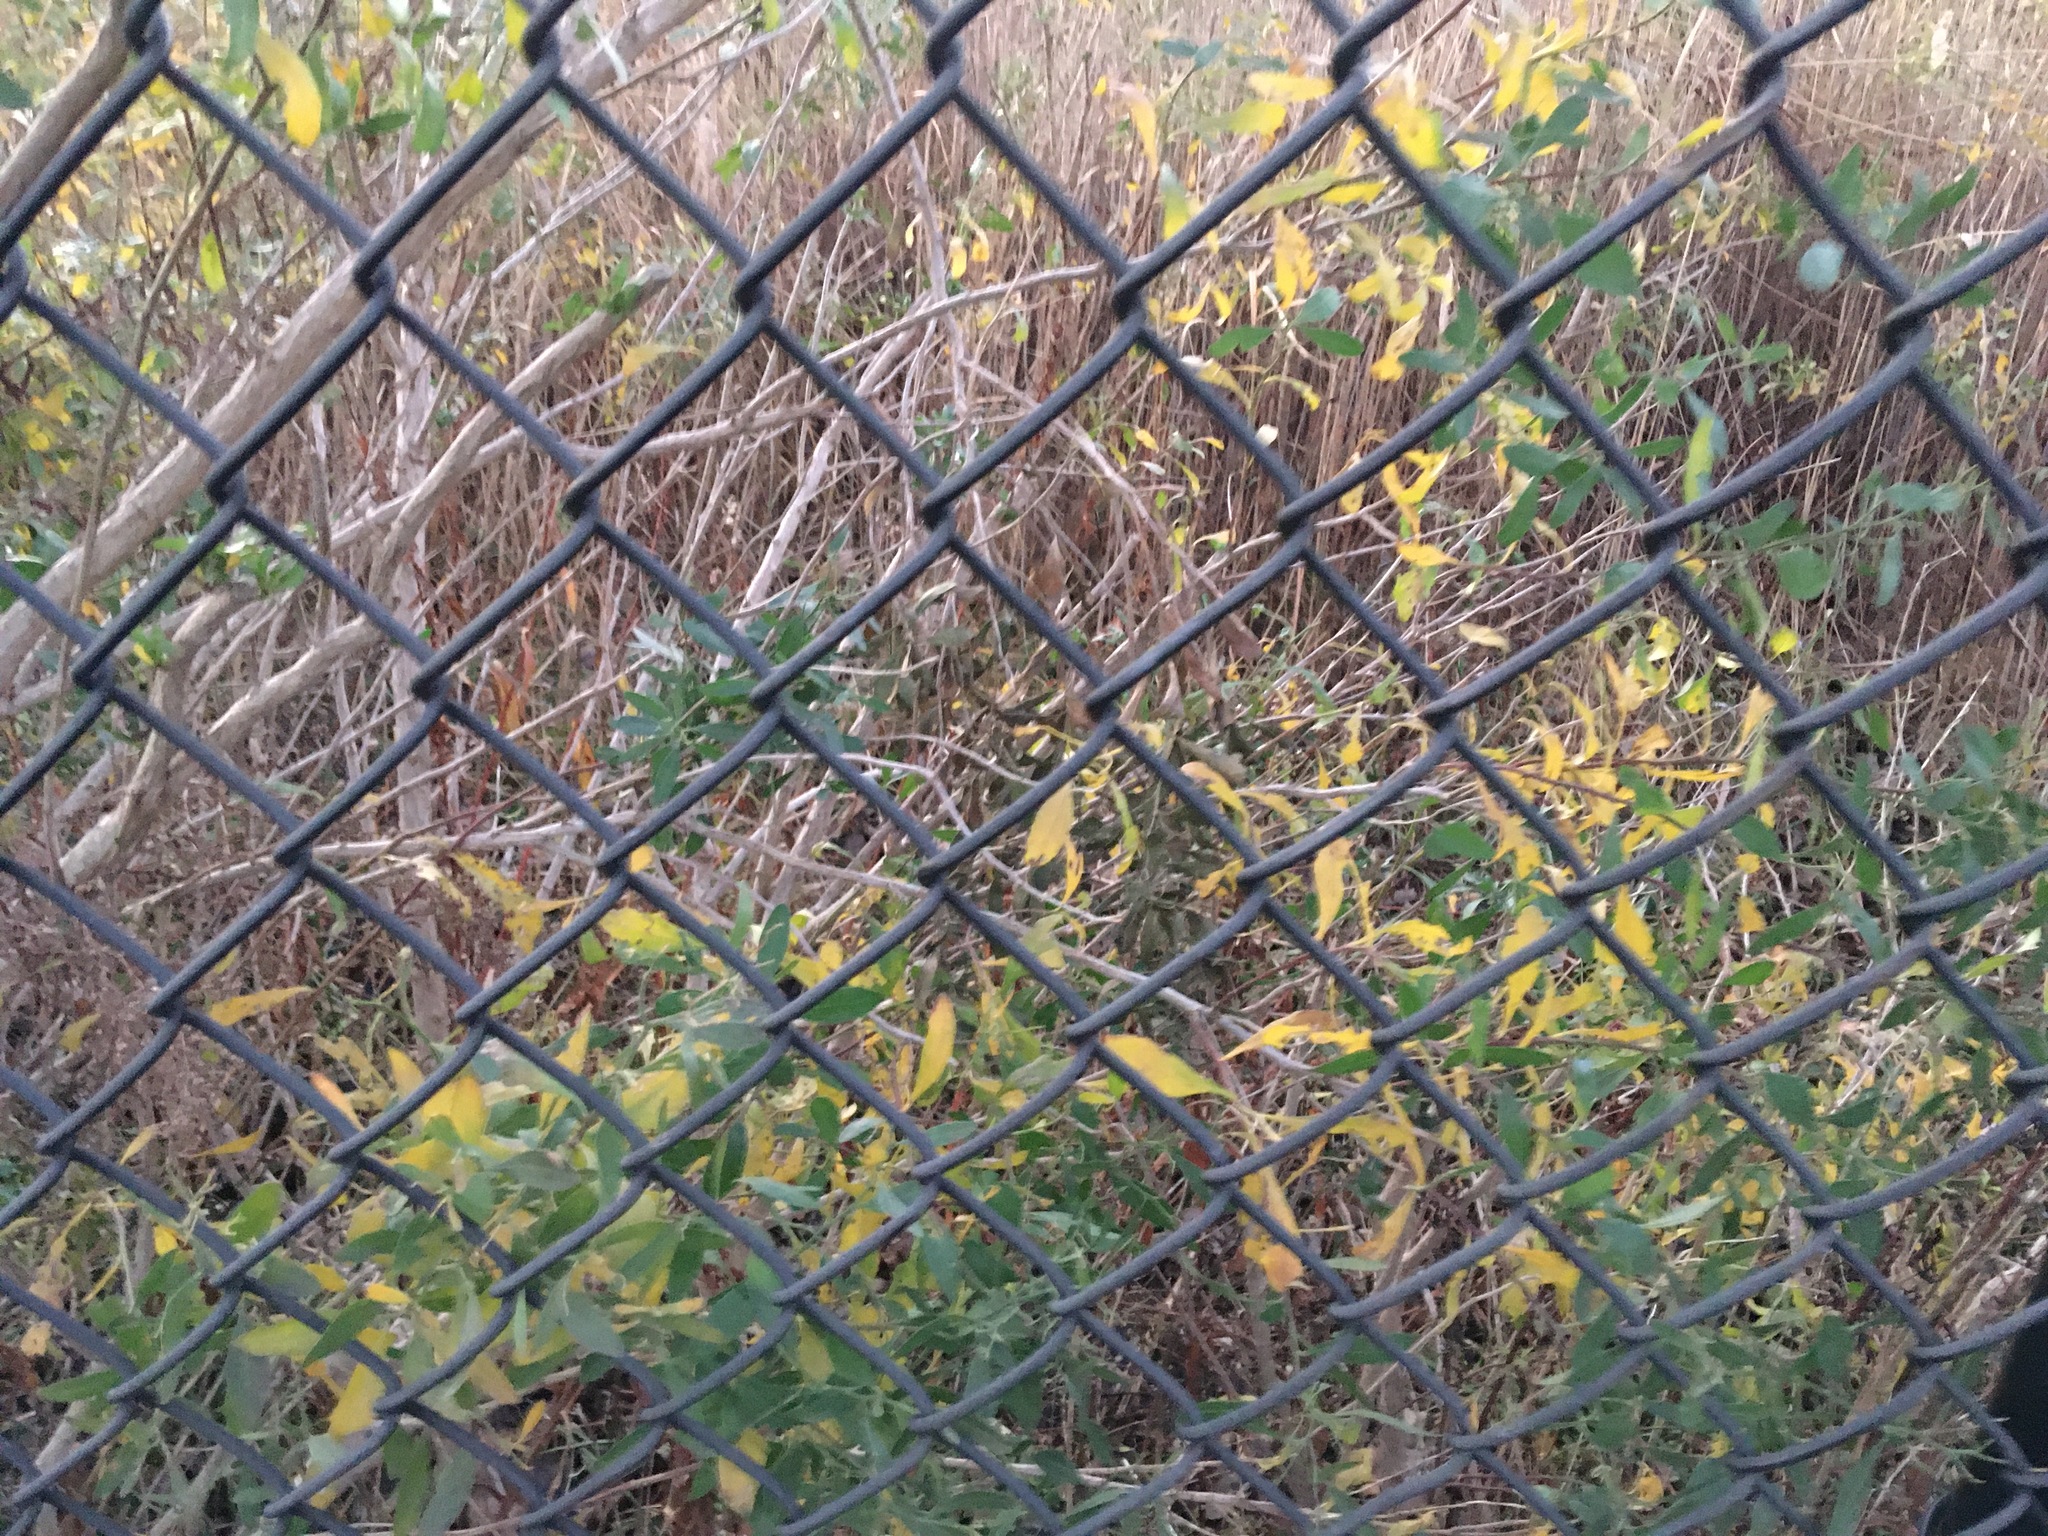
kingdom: Plantae
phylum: Tracheophyta
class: Magnoliopsida
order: Asterales
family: Asteraceae
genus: Baccharis
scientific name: Baccharis halimifolia
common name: Eastern baccharis
